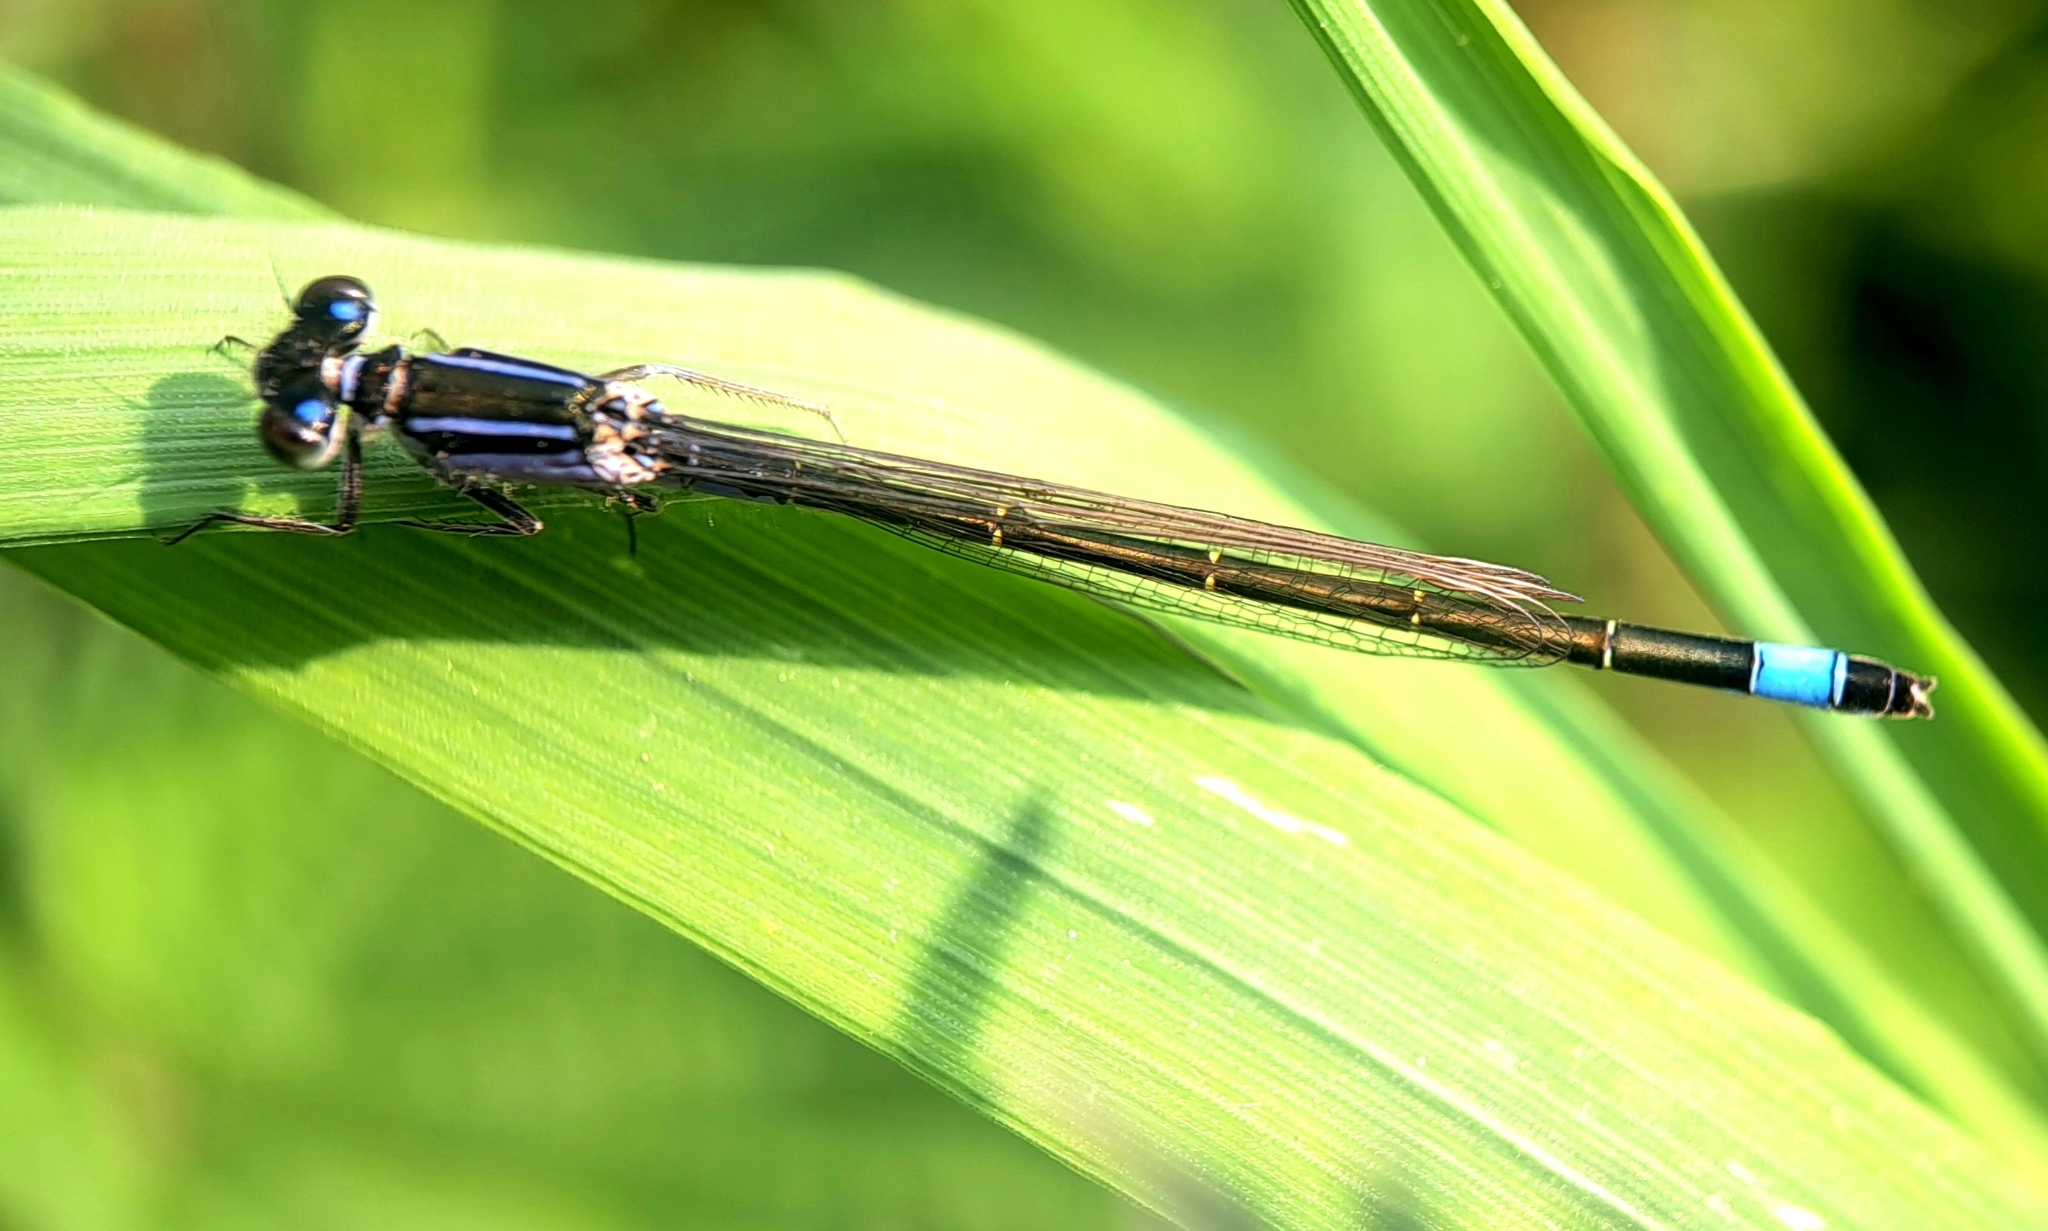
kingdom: Animalia
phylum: Arthropoda
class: Insecta
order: Odonata
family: Coenagrionidae
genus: Ischnura
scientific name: Ischnura elegans
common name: Blue-tailed damselfly
